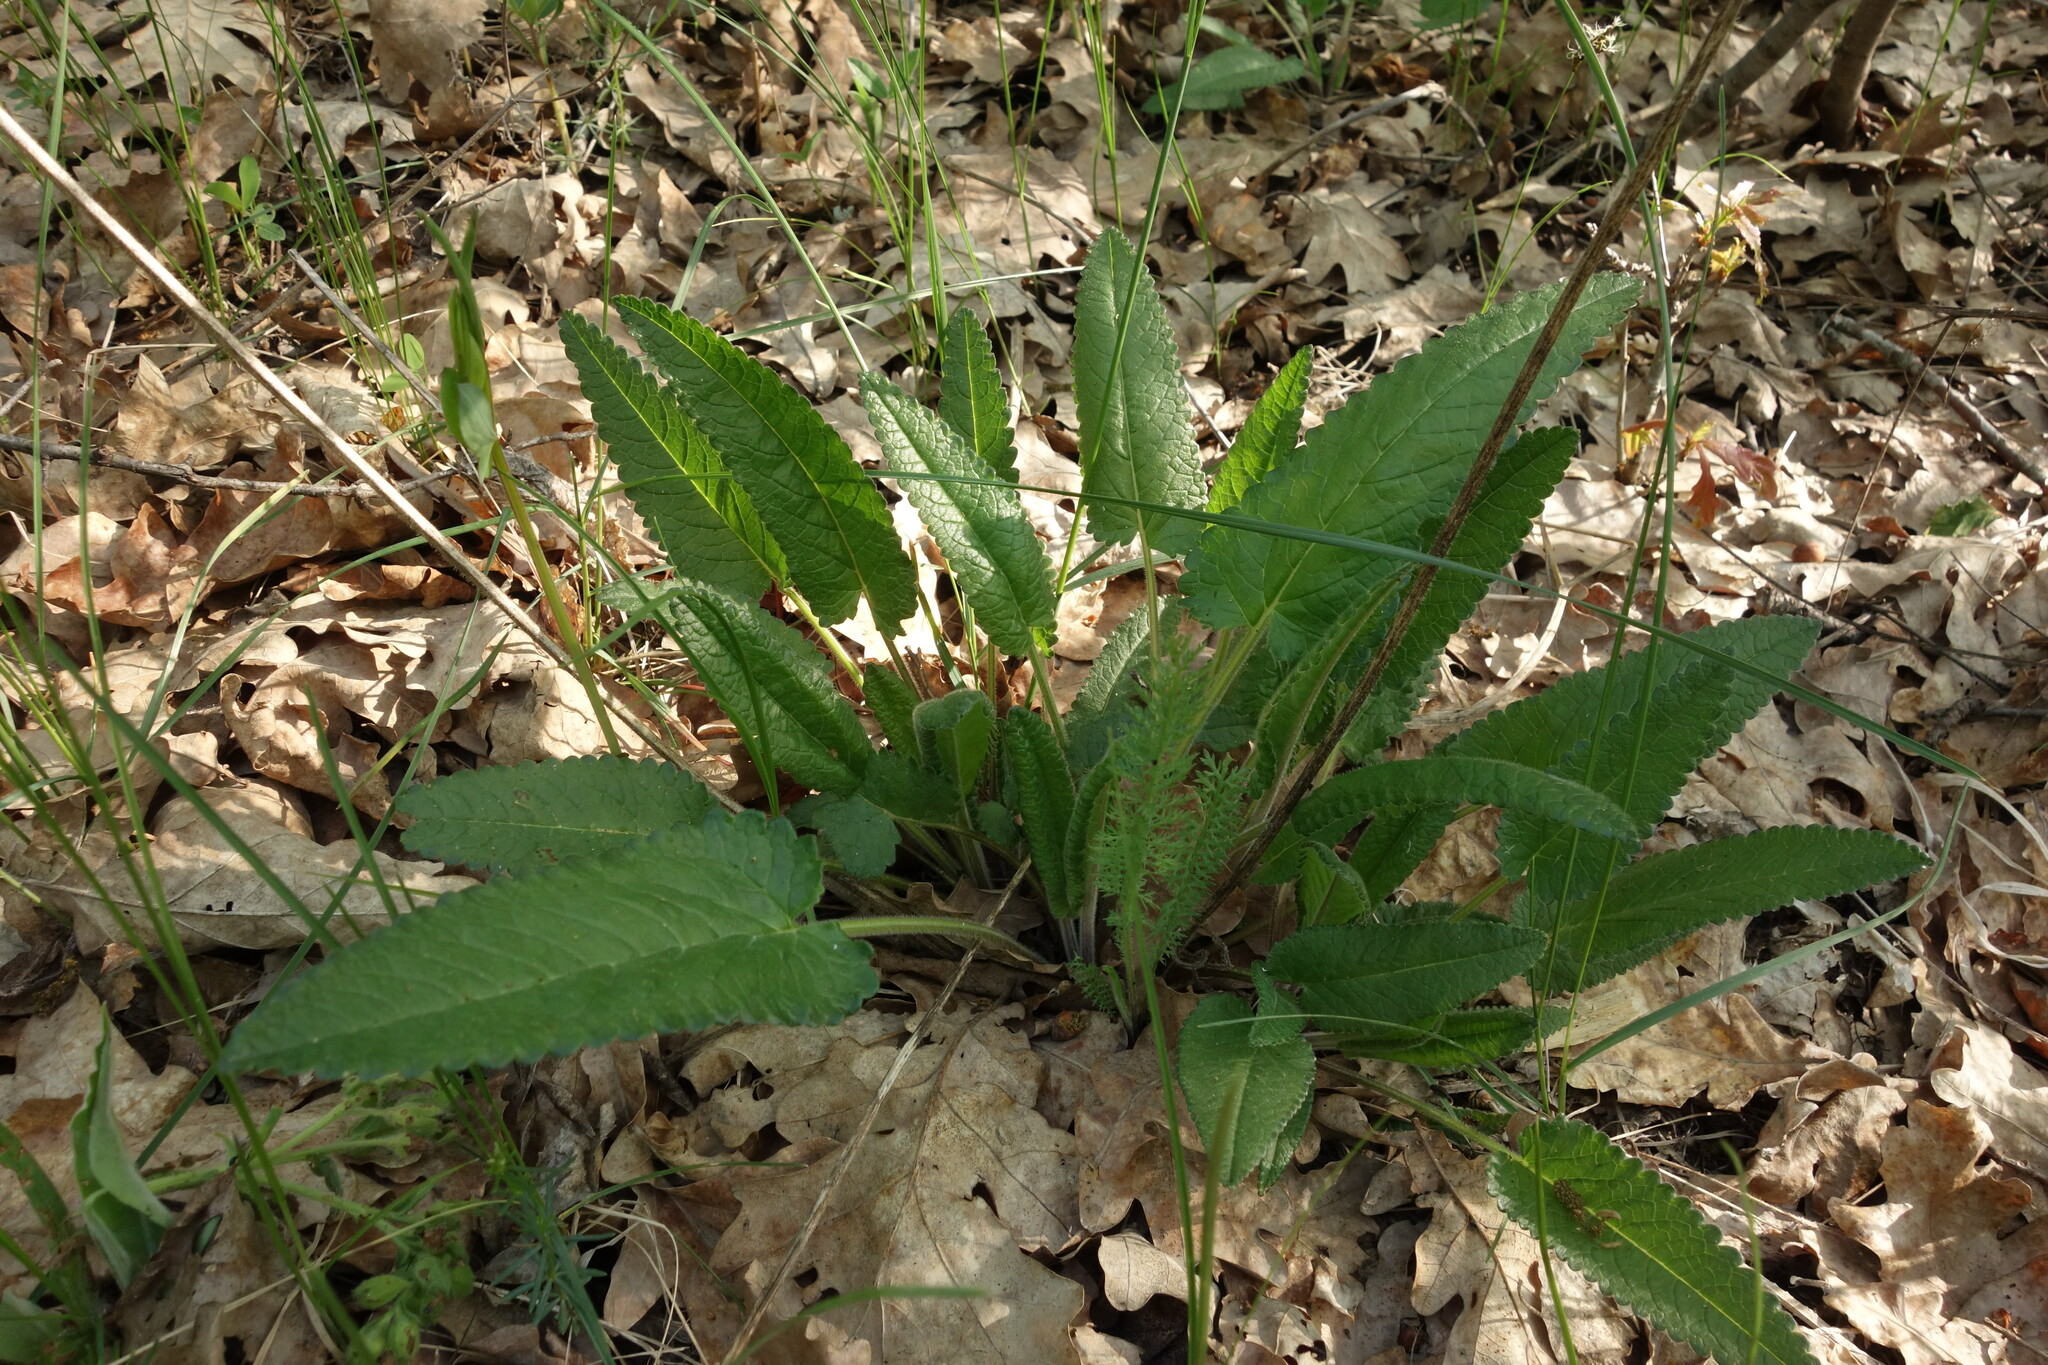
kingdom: Plantae
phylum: Tracheophyta
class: Magnoliopsida
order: Lamiales
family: Lamiaceae
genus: Betonica
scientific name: Betonica officinalis
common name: Bishop's-wort
